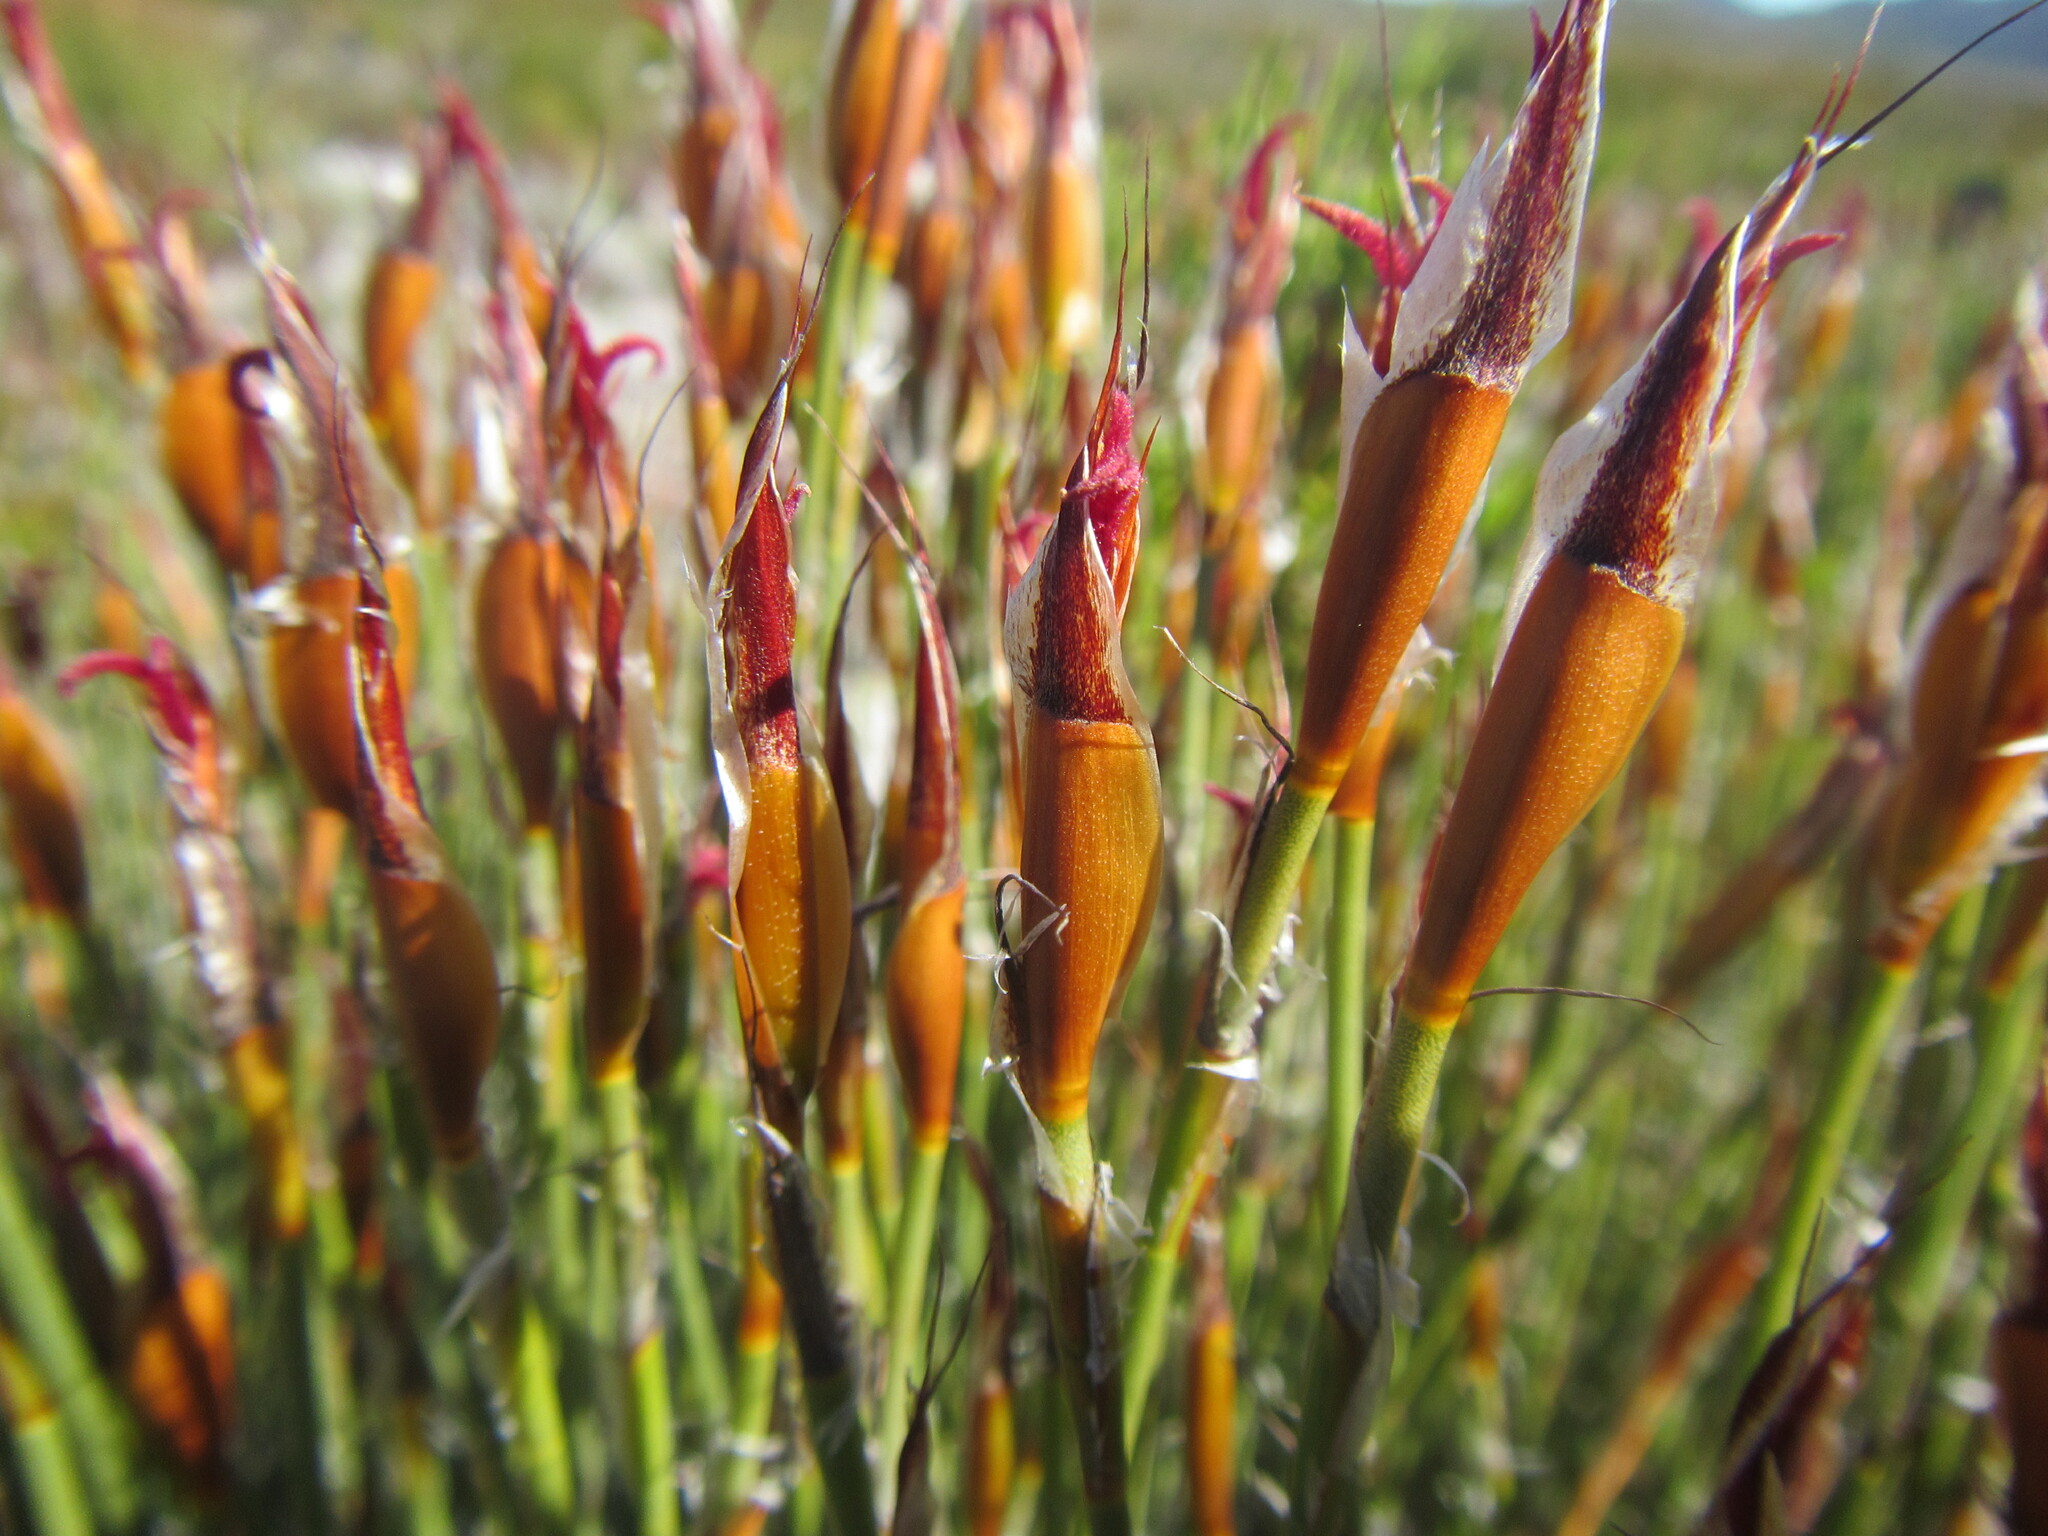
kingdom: Plantae
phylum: Tracheophyta
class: Liliopsida
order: Poales
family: Restionaceae
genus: Willdenowia
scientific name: Willdenowia teres
